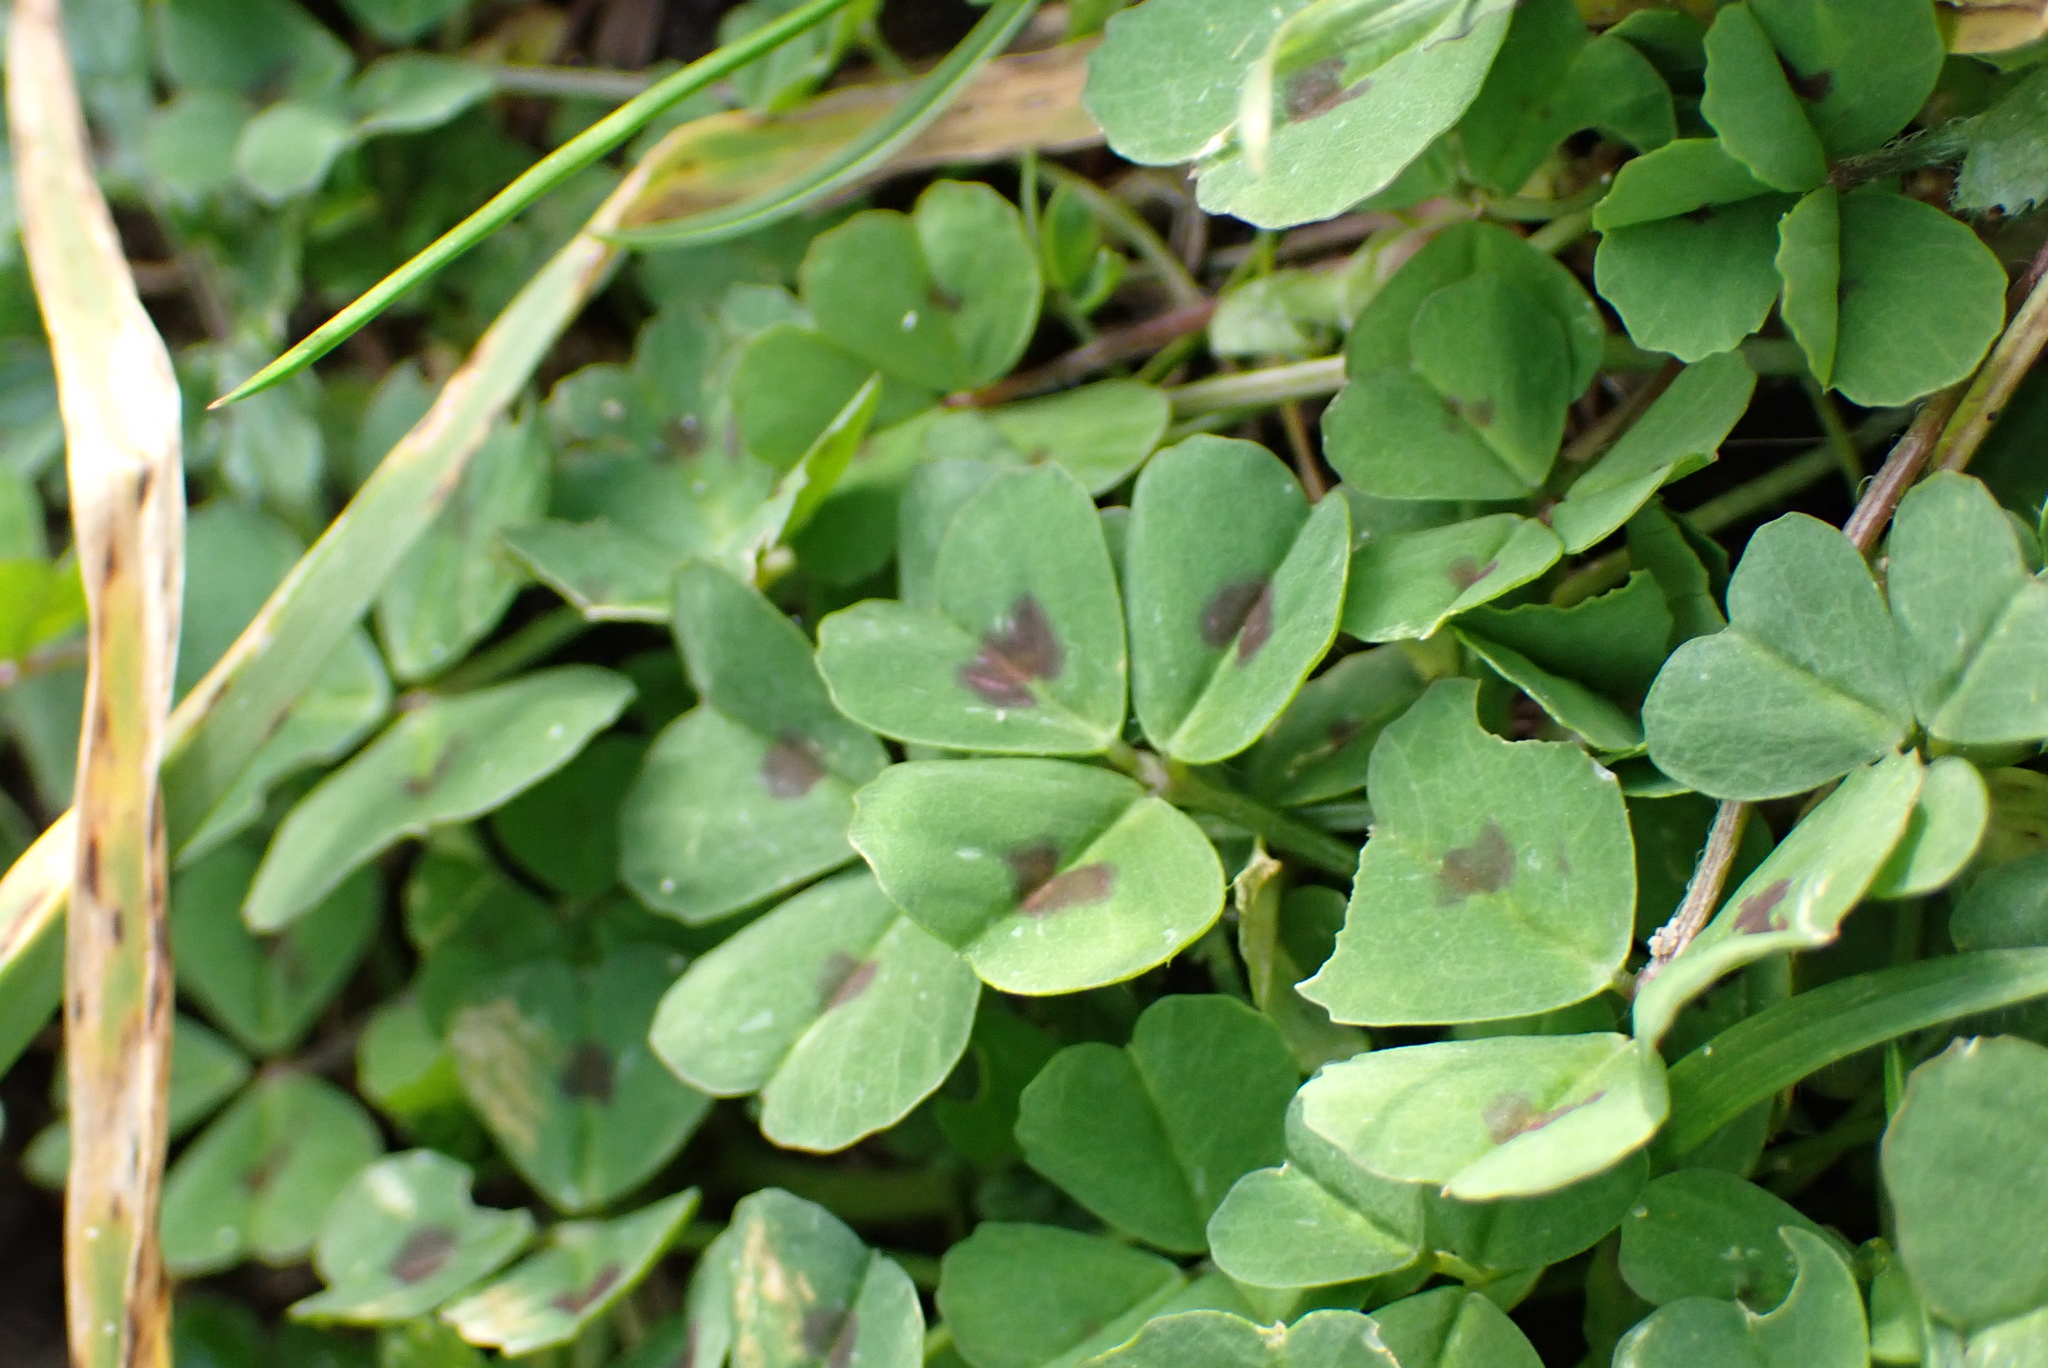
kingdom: Plantae
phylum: Tracheophyta
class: Magnoliopsida
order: Fabales
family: Fabaceae
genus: Medicago
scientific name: Medicago arabica
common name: Spotted medick
